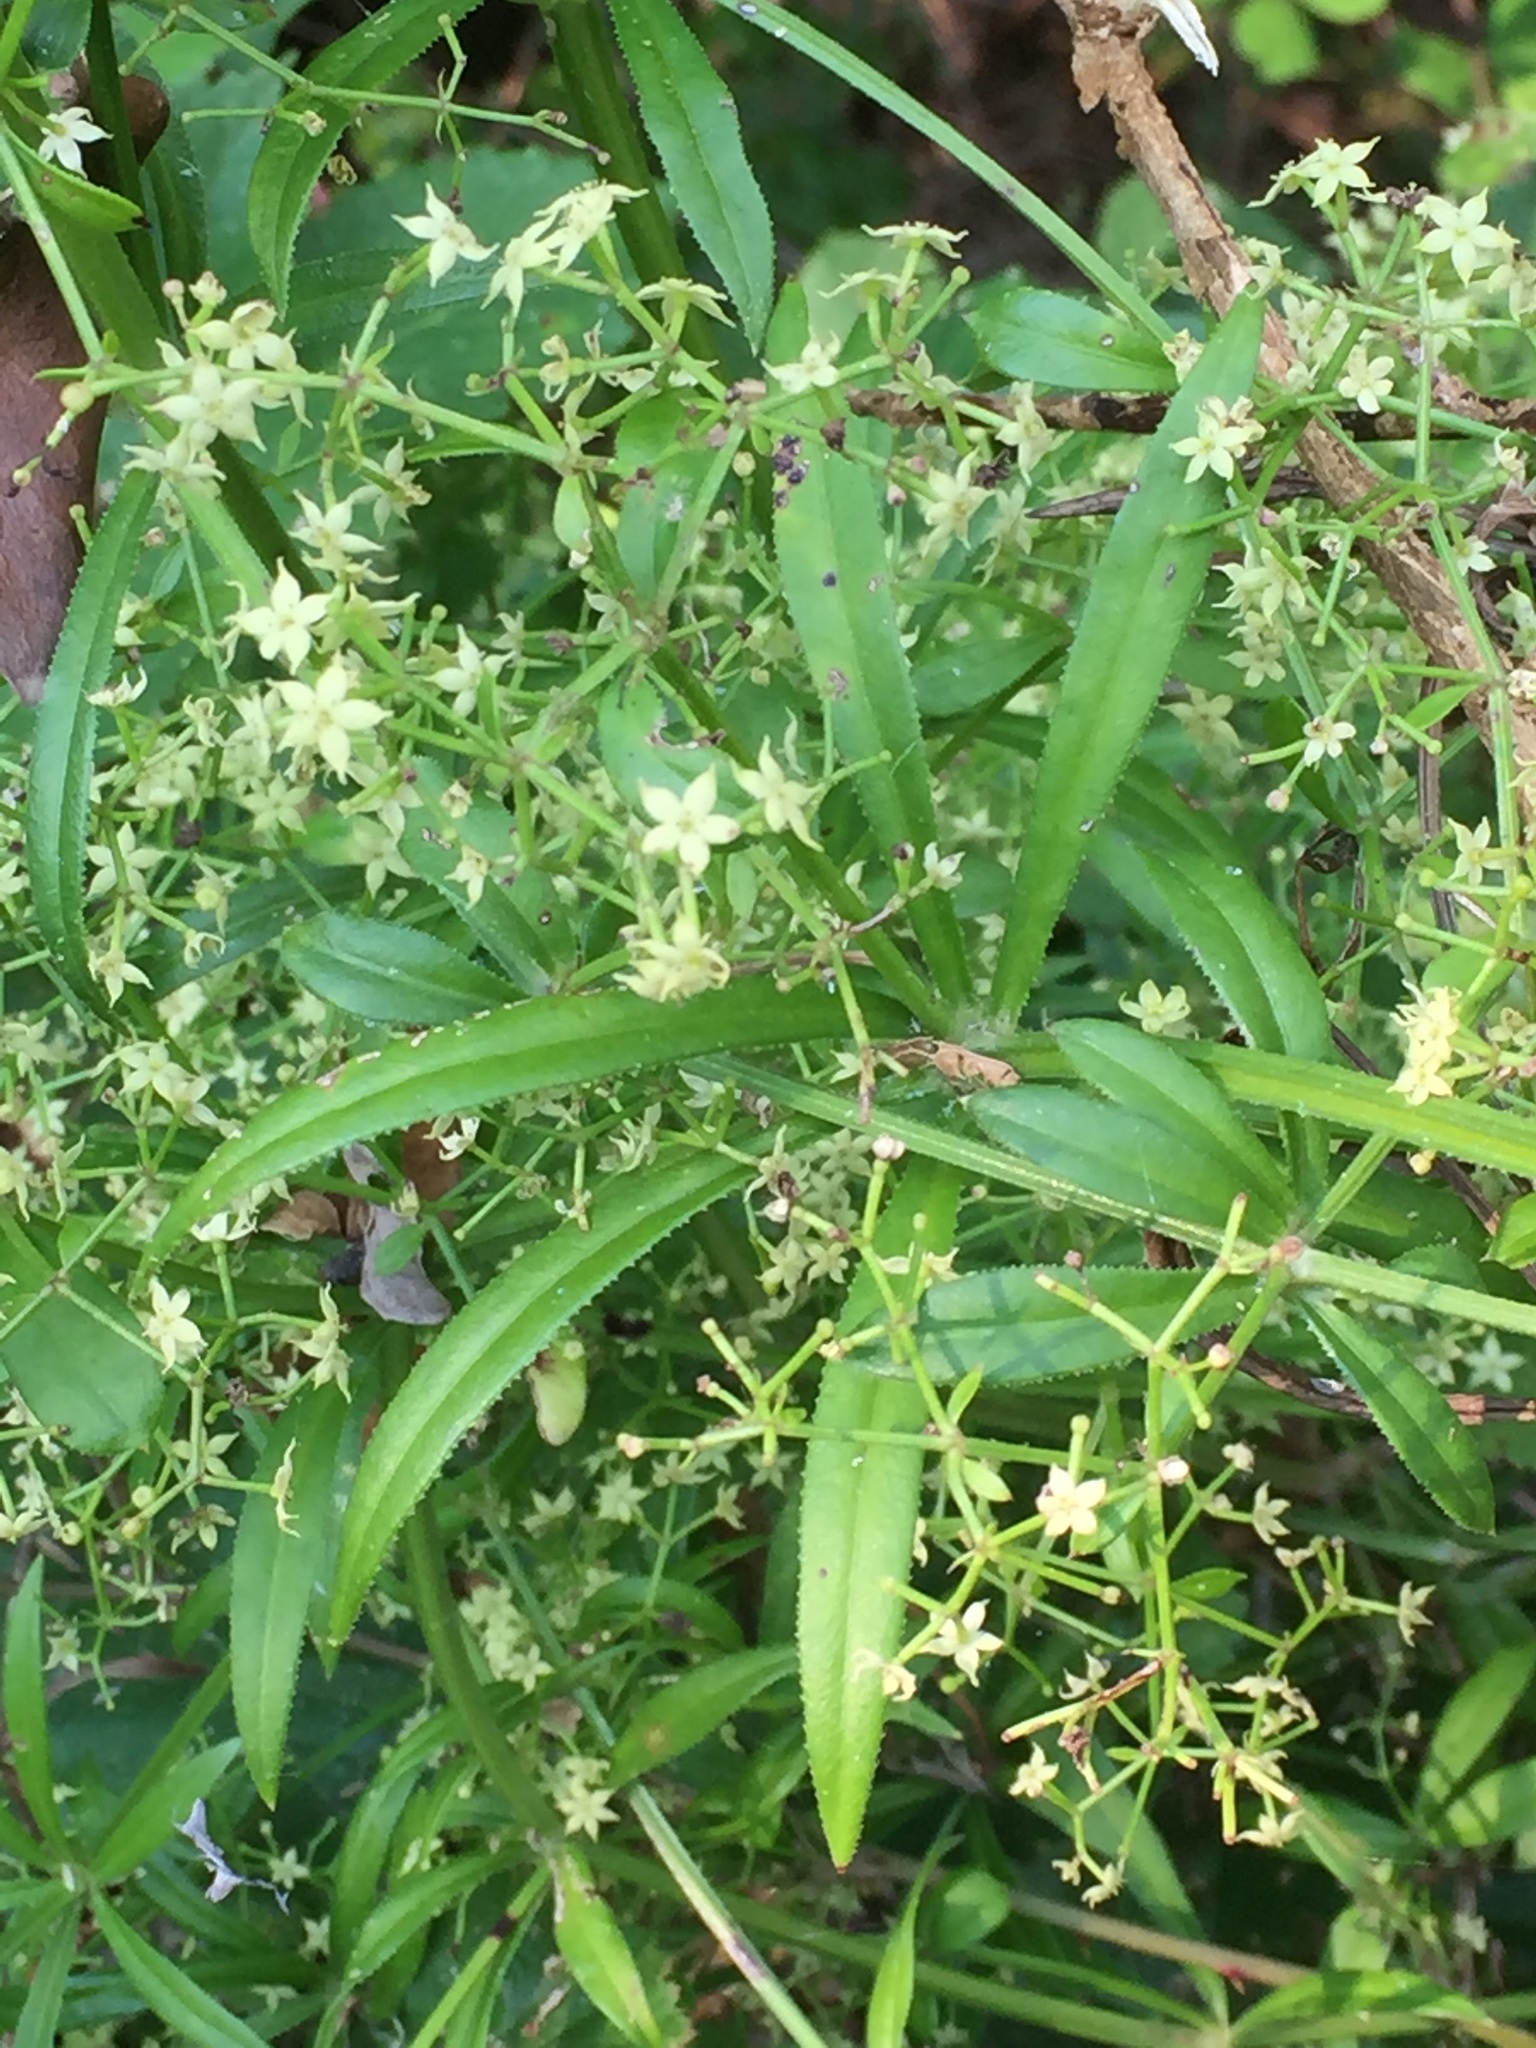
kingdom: Plantae
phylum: Tracheophyta
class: Magnoliopsida
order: Gentianales
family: Rubiaceae
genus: Rubia
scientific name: Rubia peregrina
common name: Wild madder
